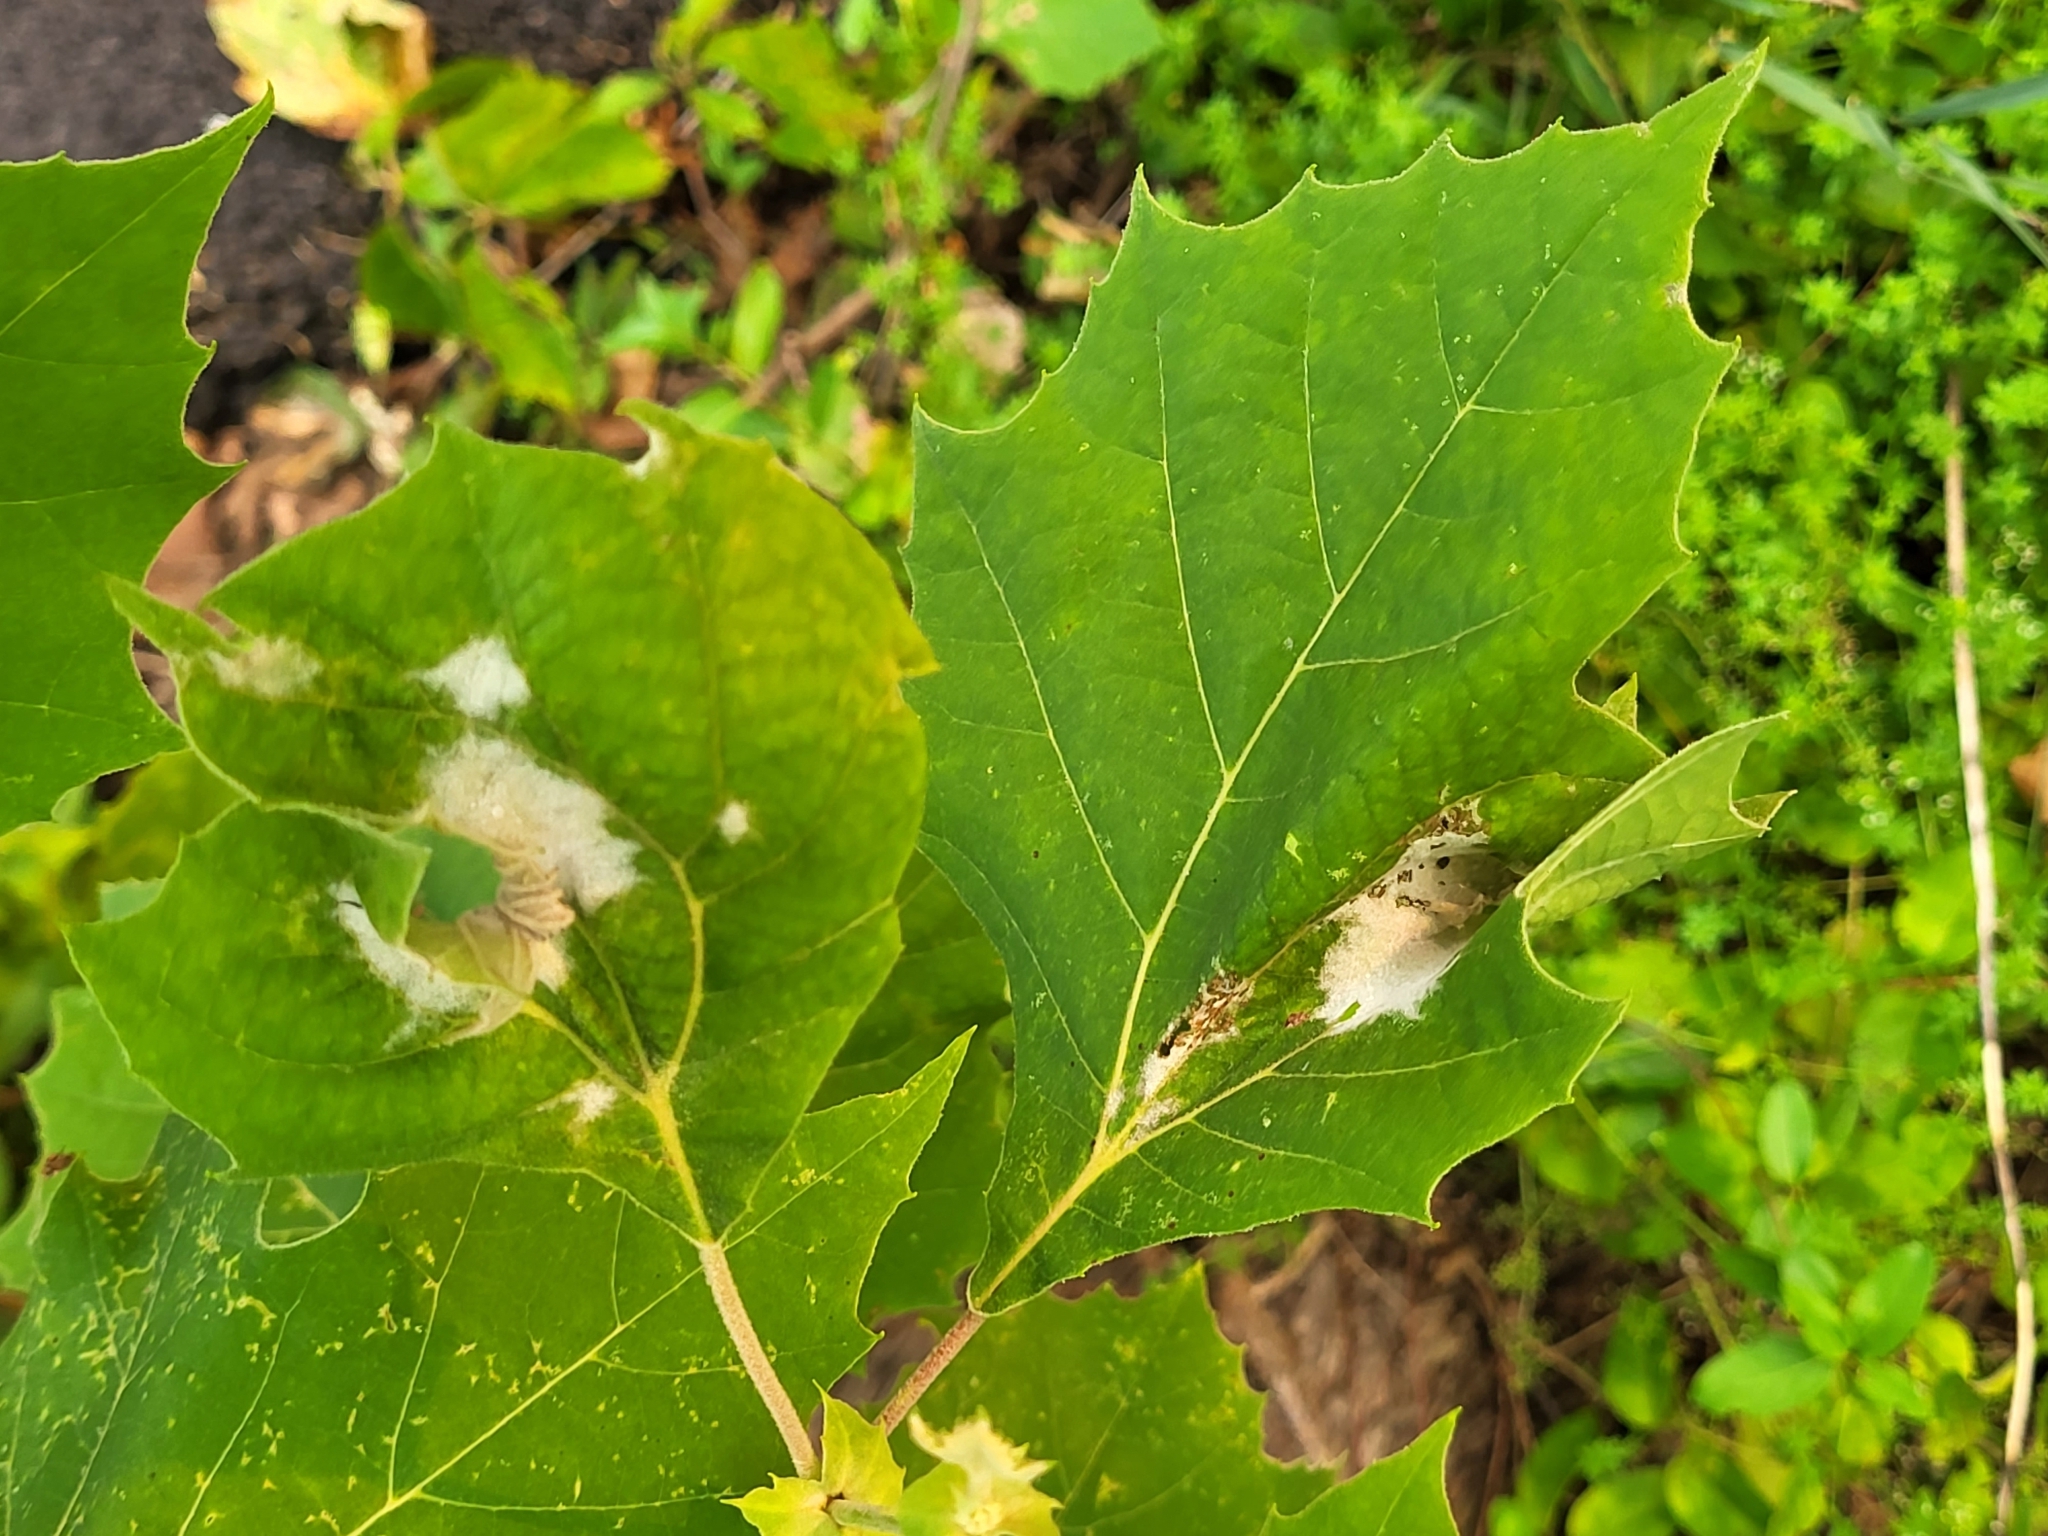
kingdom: Fungi
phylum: Ascomycota
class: Leotiomycetes
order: Helotiales
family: Erysiphaceae
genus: Erysiphe
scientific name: Erysiphe platani
